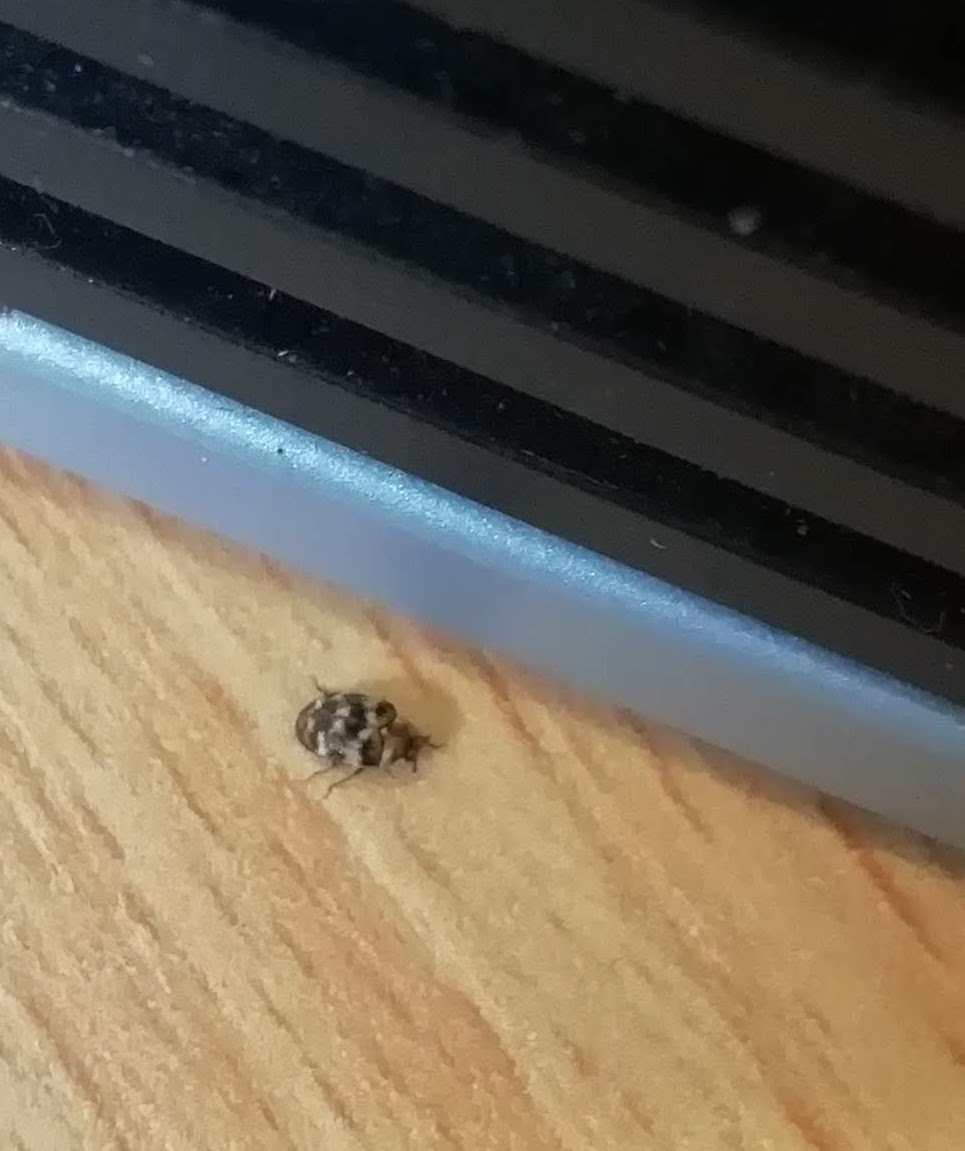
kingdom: Animalia
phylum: Arthropoda
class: Insecta
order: Coleoptera
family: Dermestidae
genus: Anthrenus
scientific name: Anthrenus verbasci
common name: Varied carpet beetle
